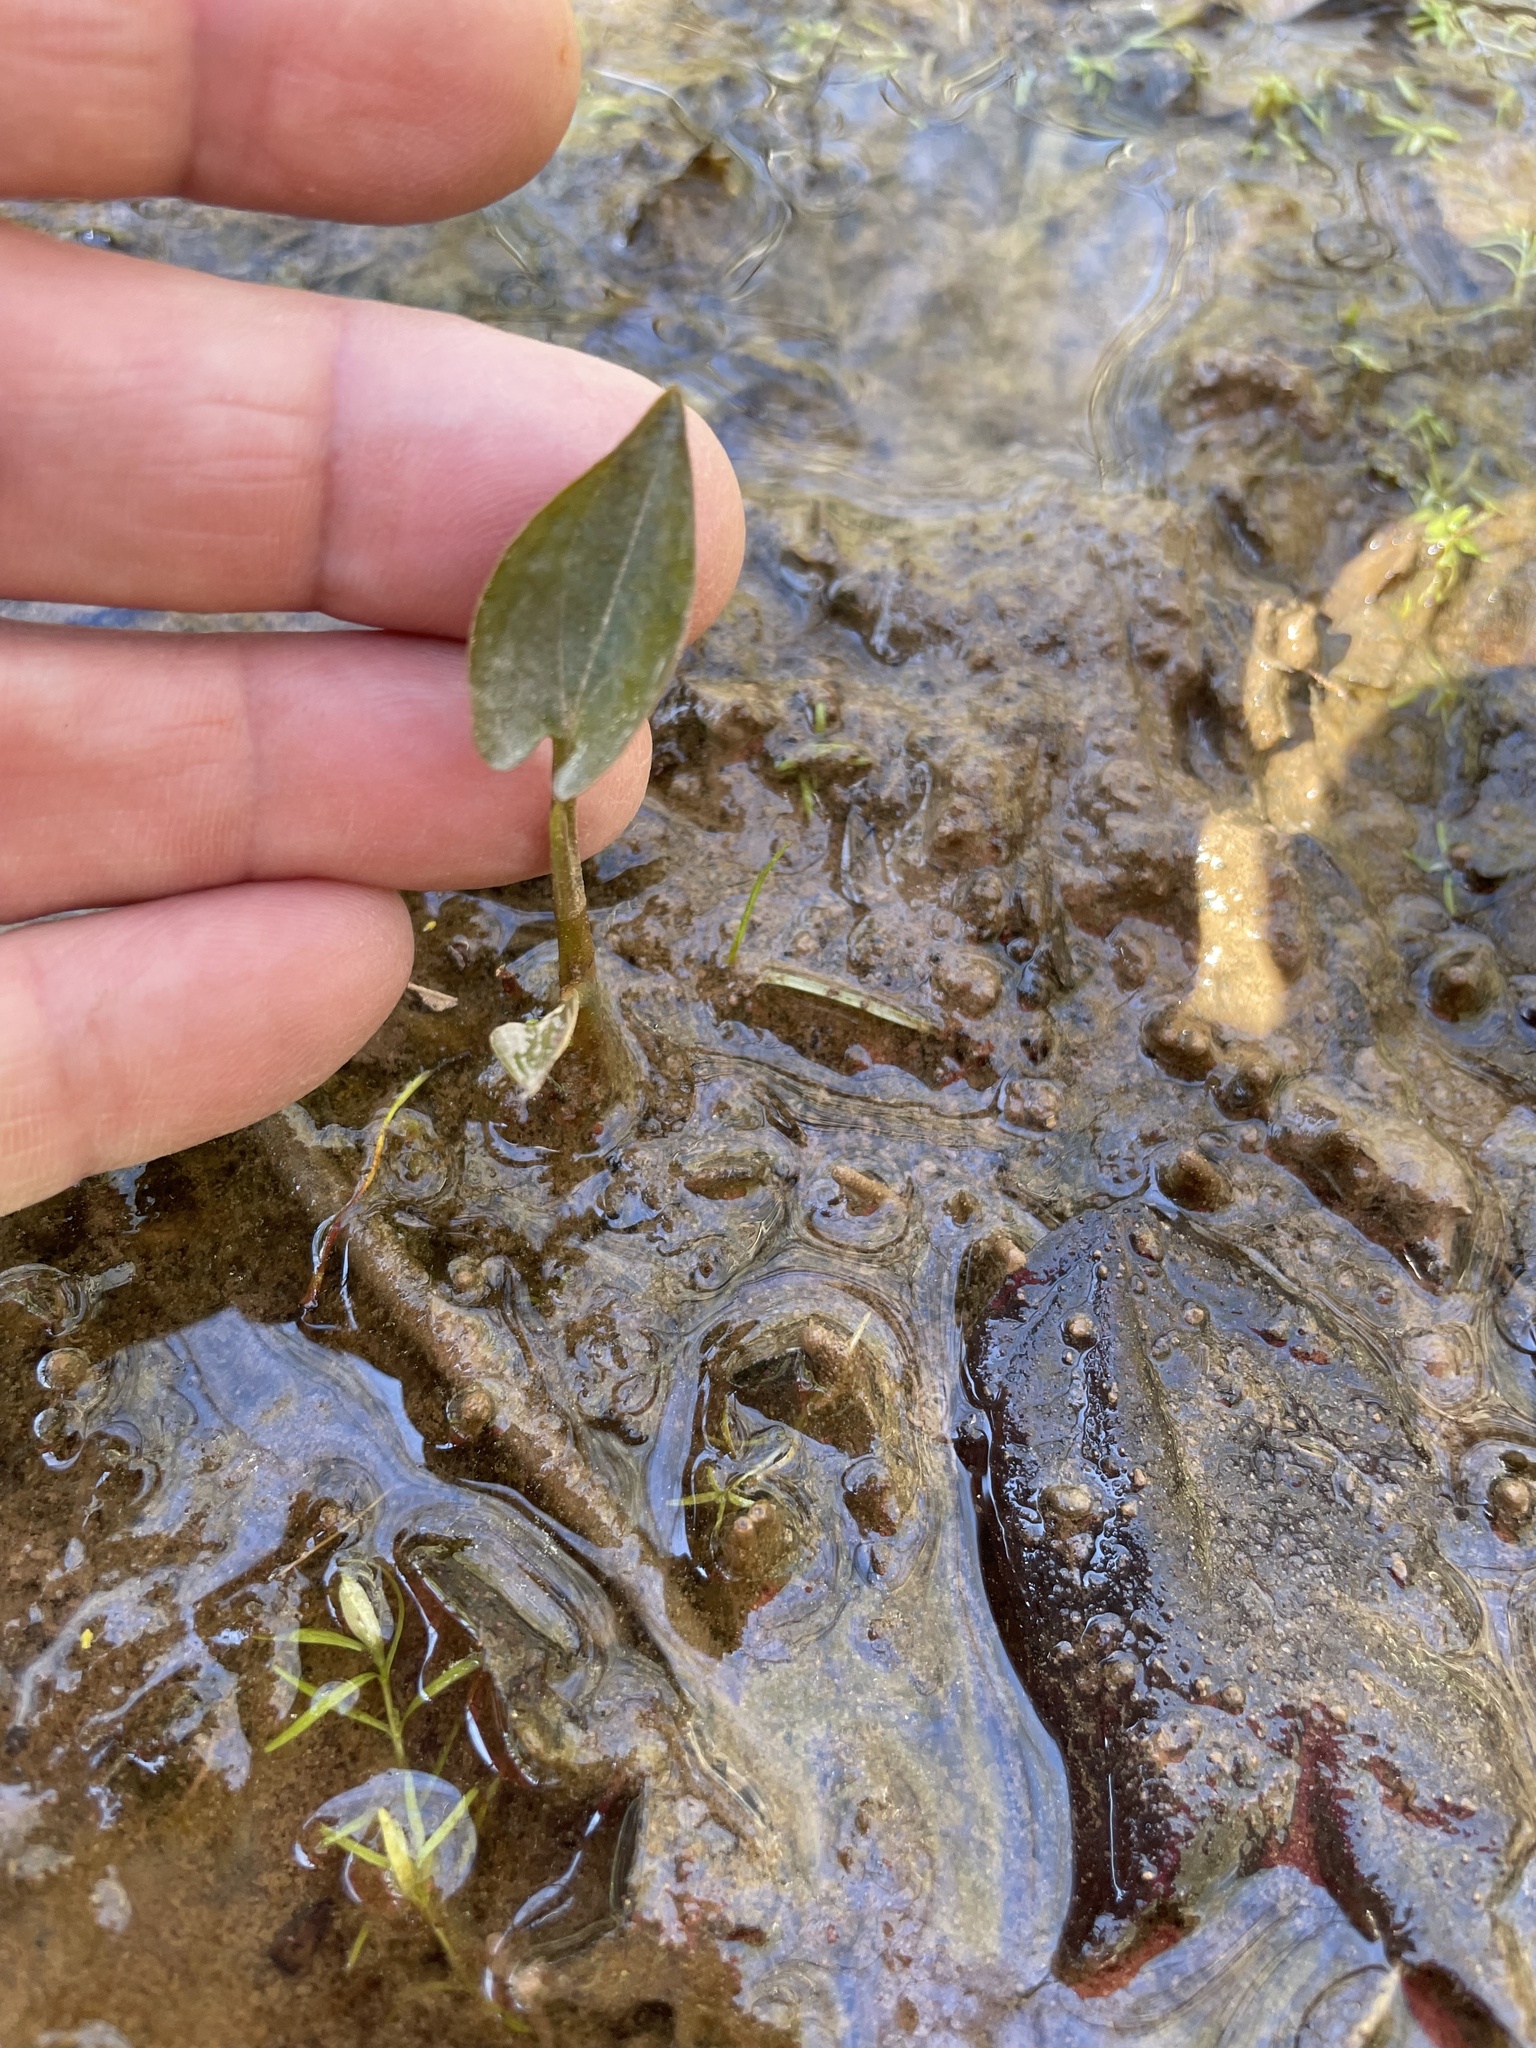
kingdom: Plantae
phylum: Tracheophyta
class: Magnoliopsida
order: Piperales
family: Saururaceae
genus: Saururus
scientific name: Saururus cernuus
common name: Lizard's-tail
